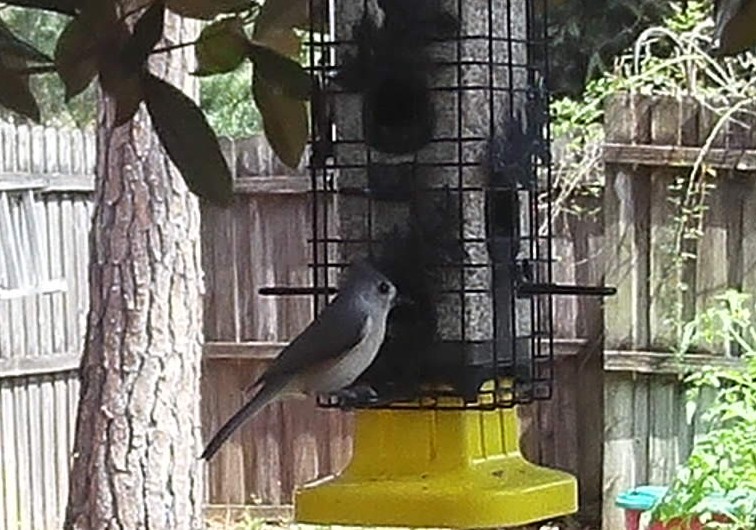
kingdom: Animalia
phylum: Chordata
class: Aves
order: Passeriformes
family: Paridae
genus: Baeolophus
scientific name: Baeolophus bicolor
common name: Tufted titmouse
